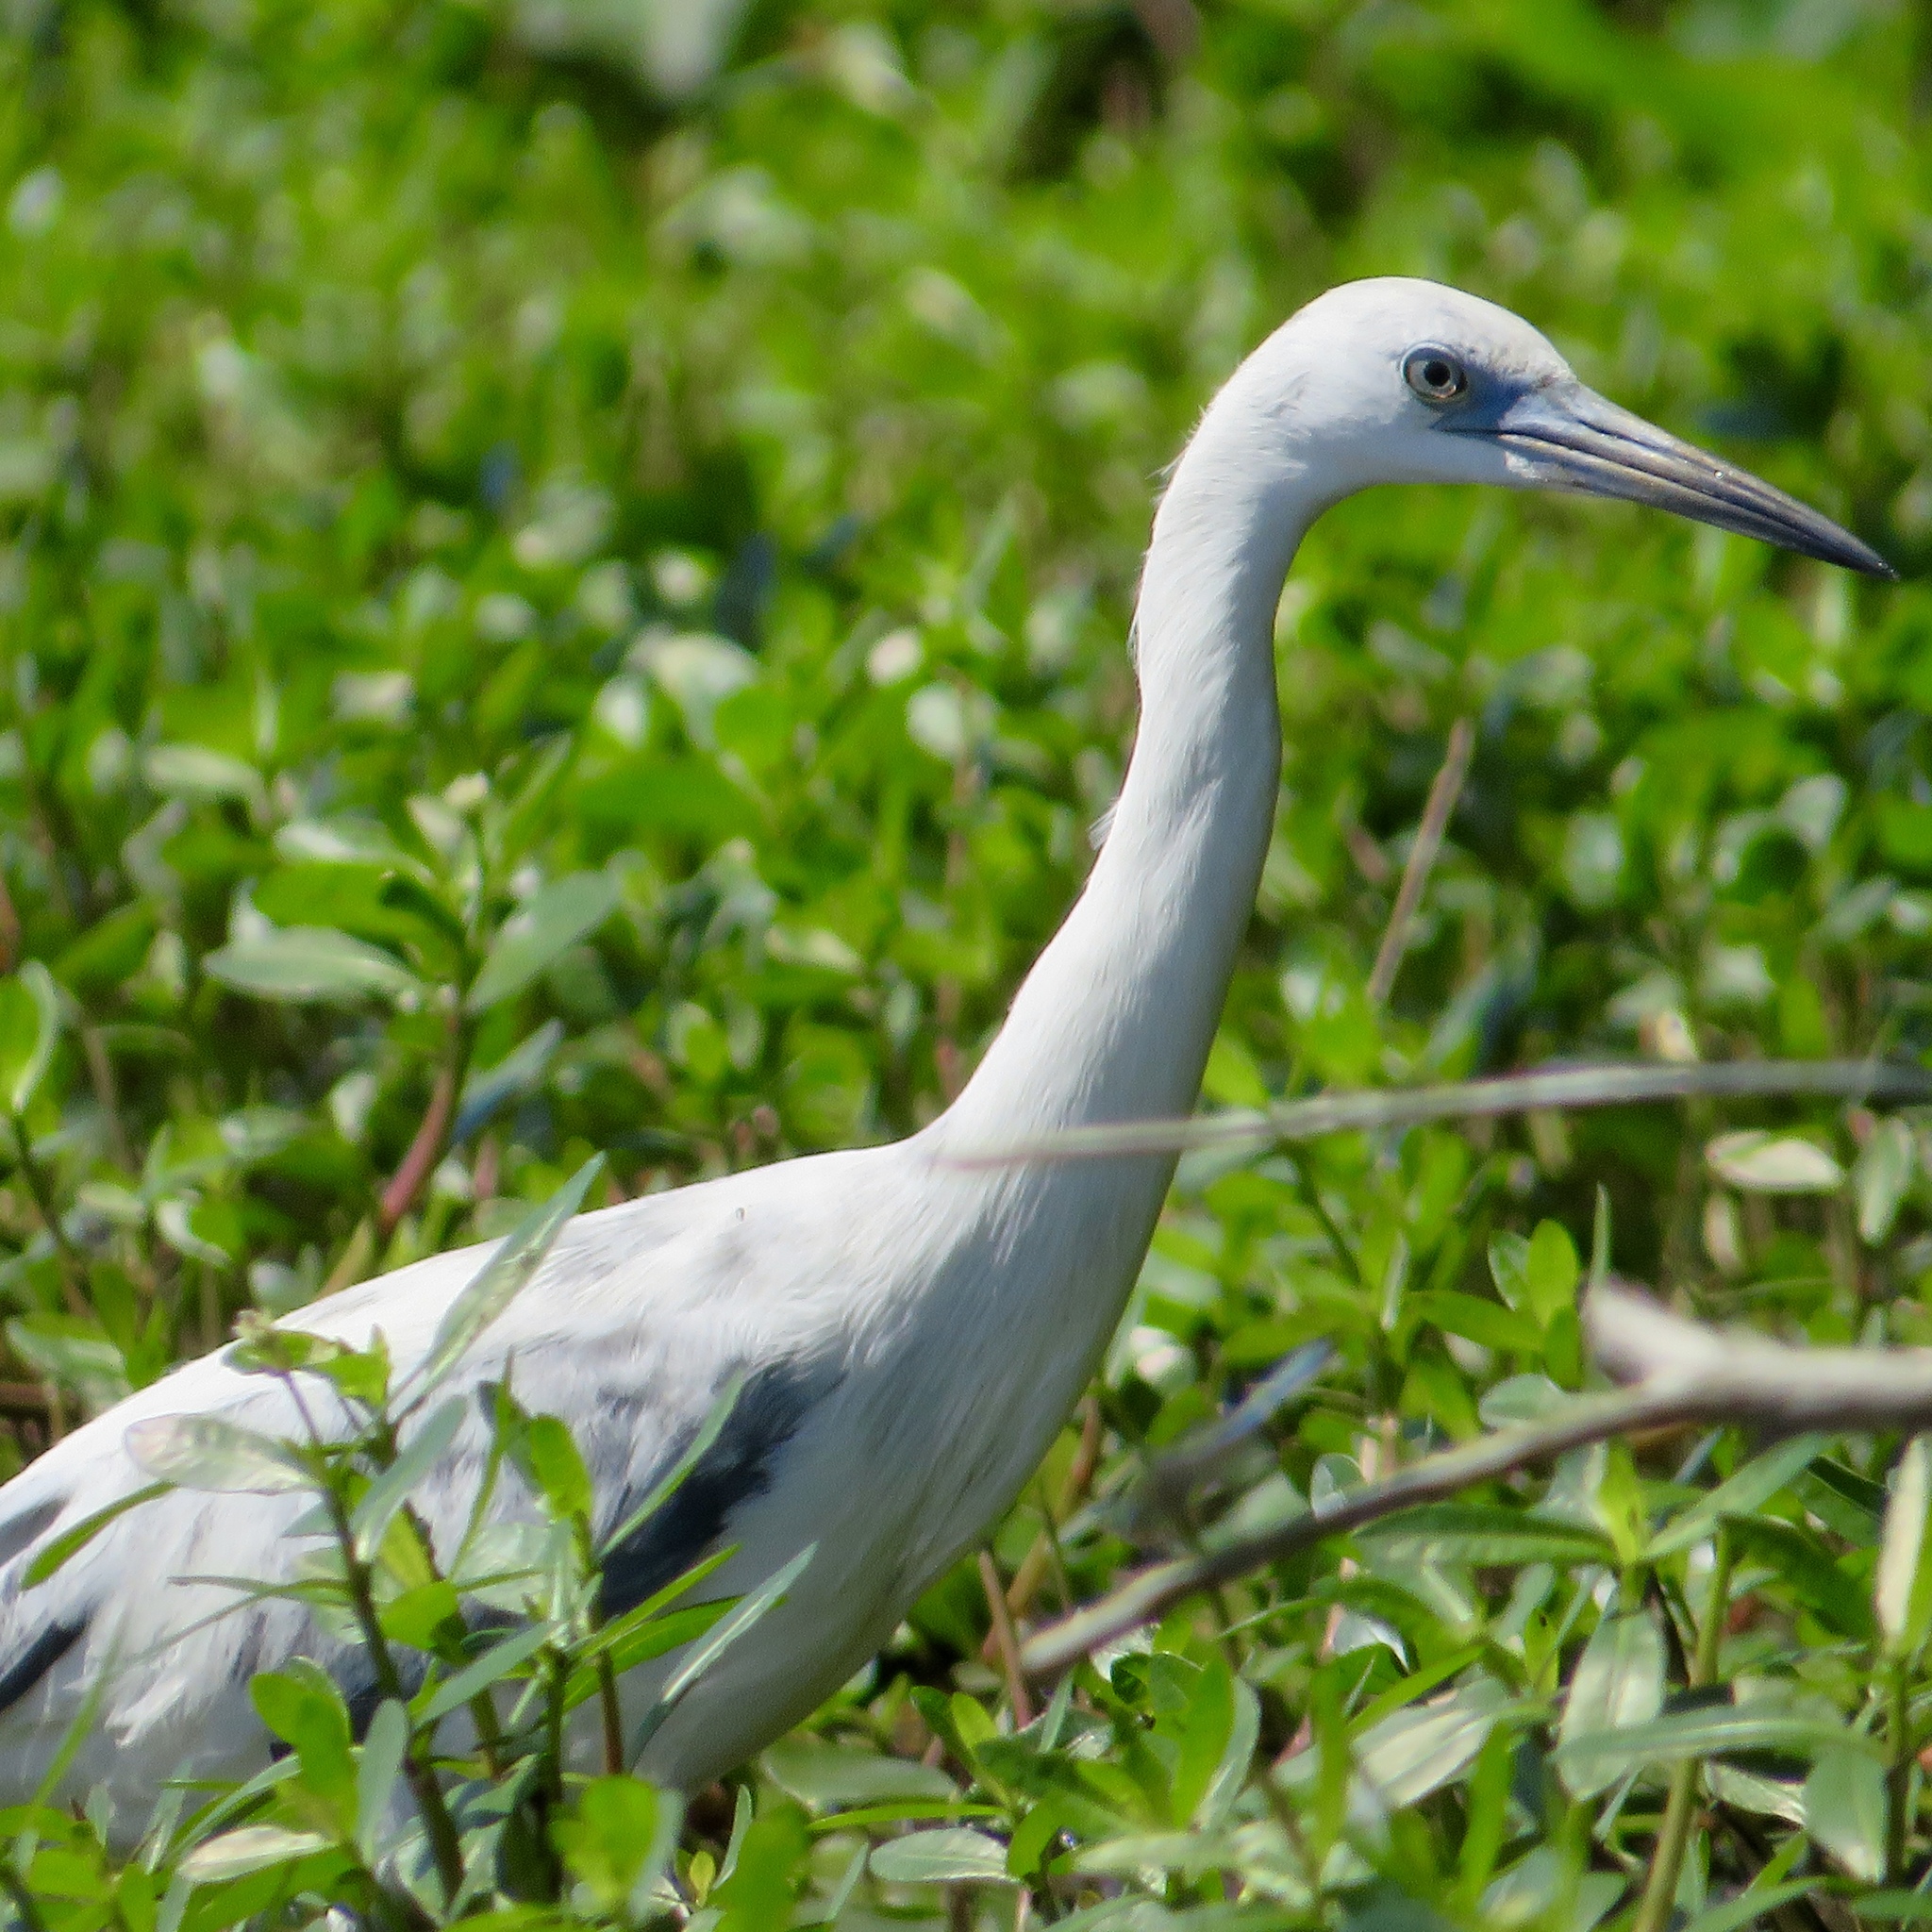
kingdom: Animalia
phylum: Chordata
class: Aves
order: Pelecaniformes
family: Ardeidae
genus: Egretta
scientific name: Egretta caerulea
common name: Little blue heron
